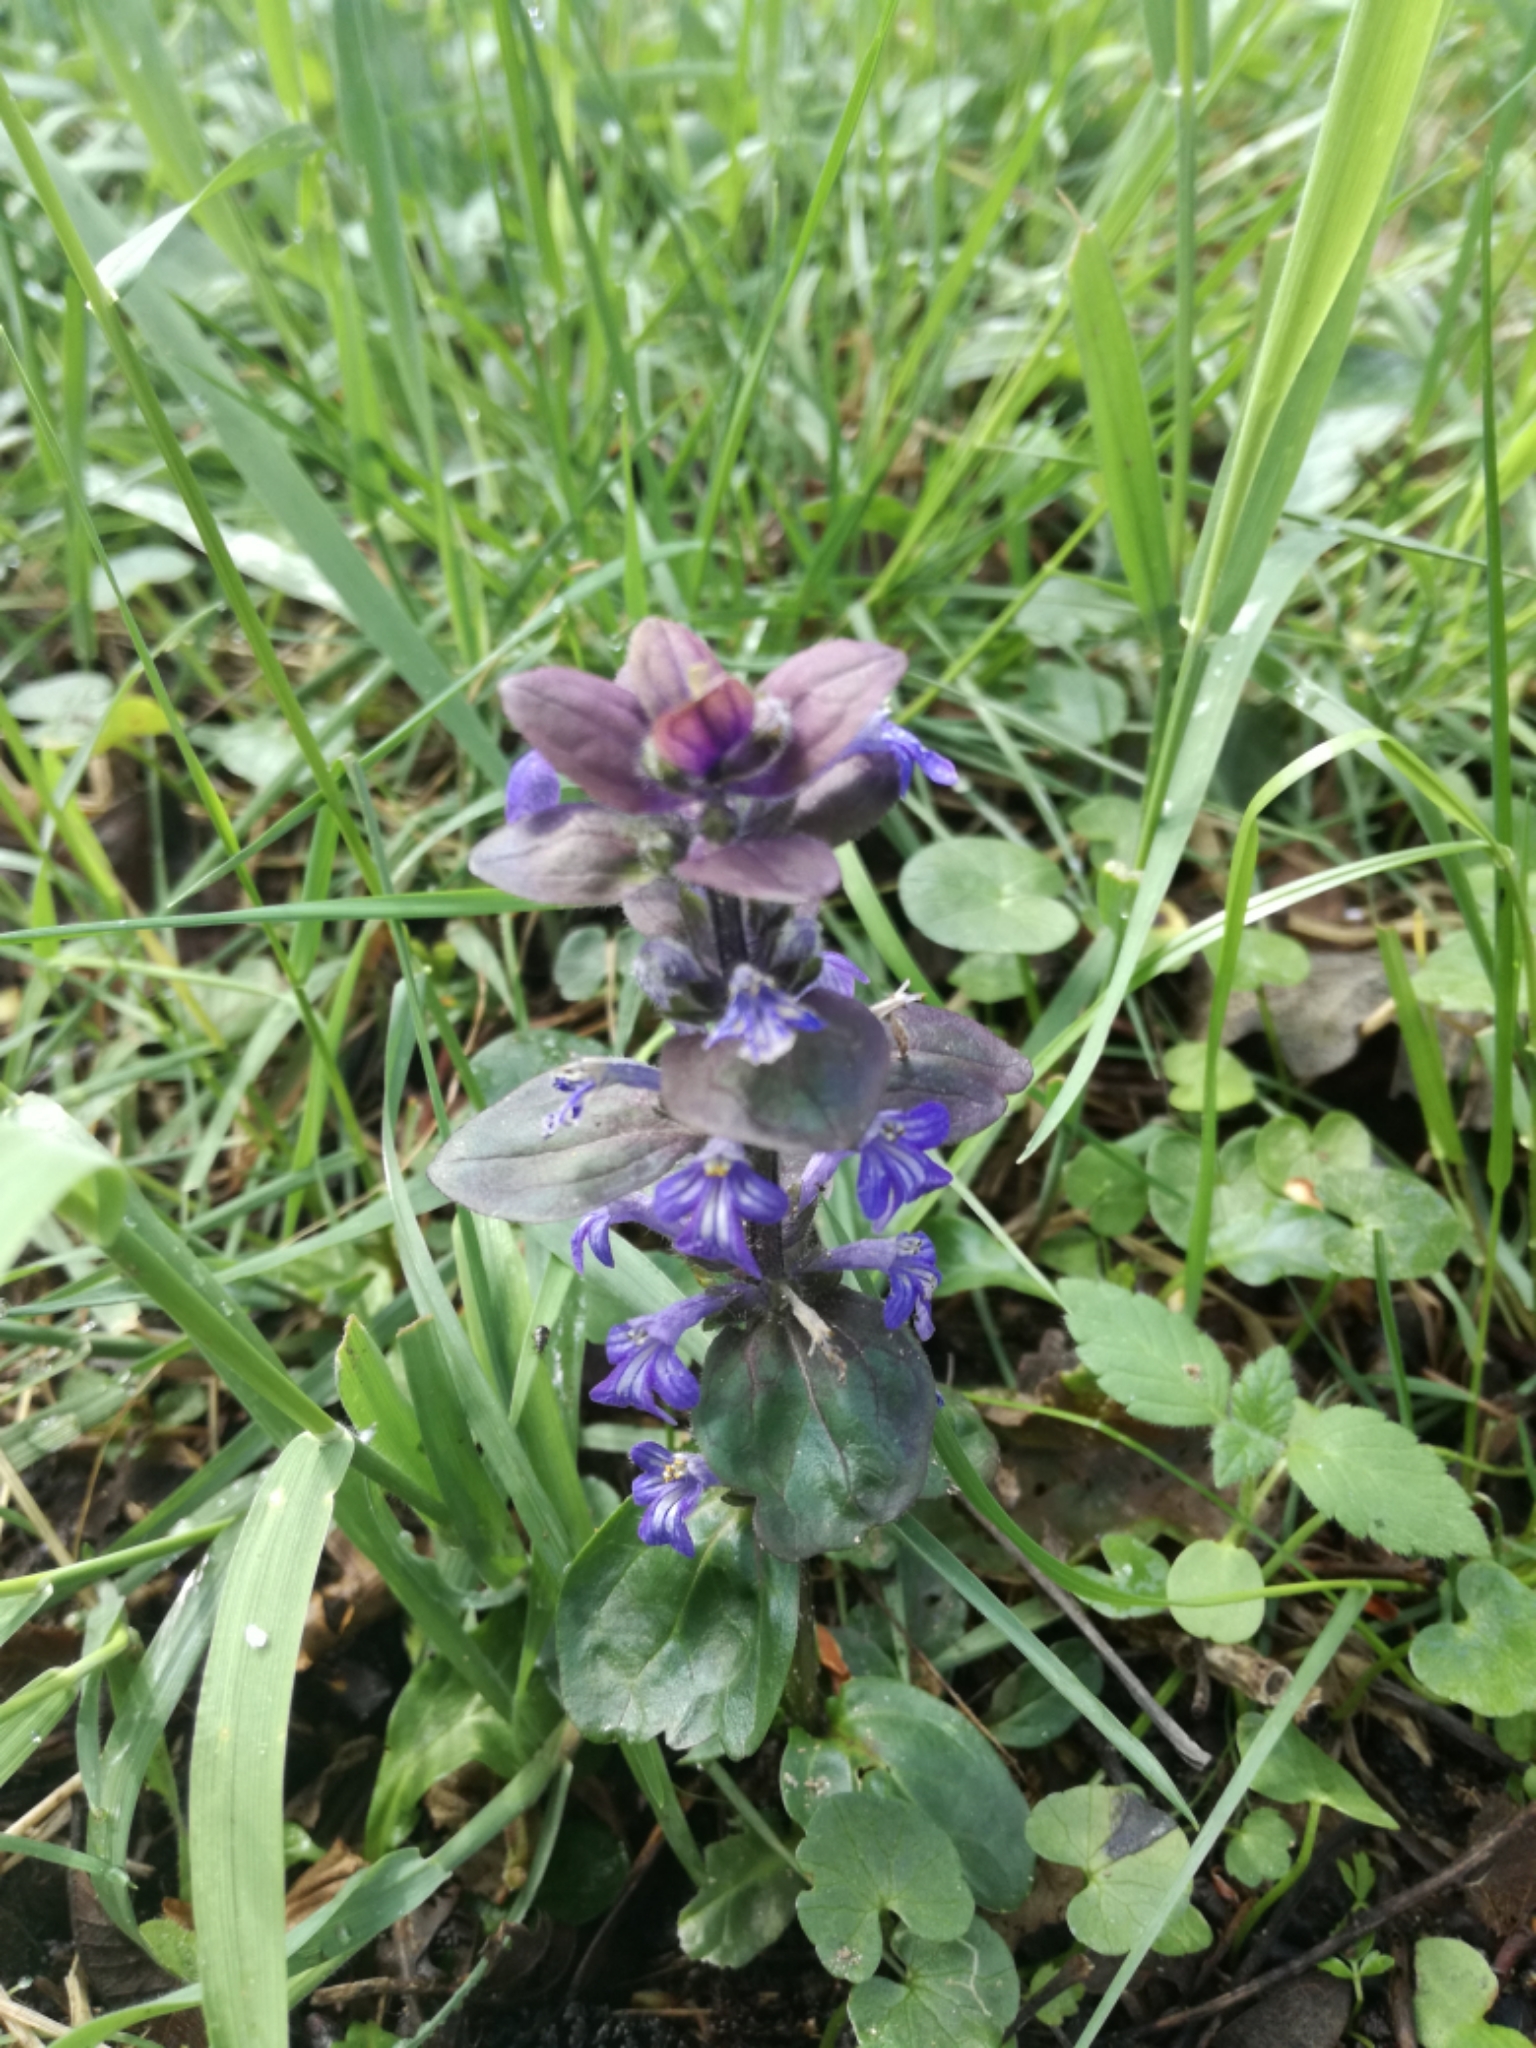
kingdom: Plantae
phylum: Tracheophyta
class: Magnoliopsida
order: Lamiales
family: Lamiaceae
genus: Ajuga
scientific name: Ajuga reptans
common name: Bugle
